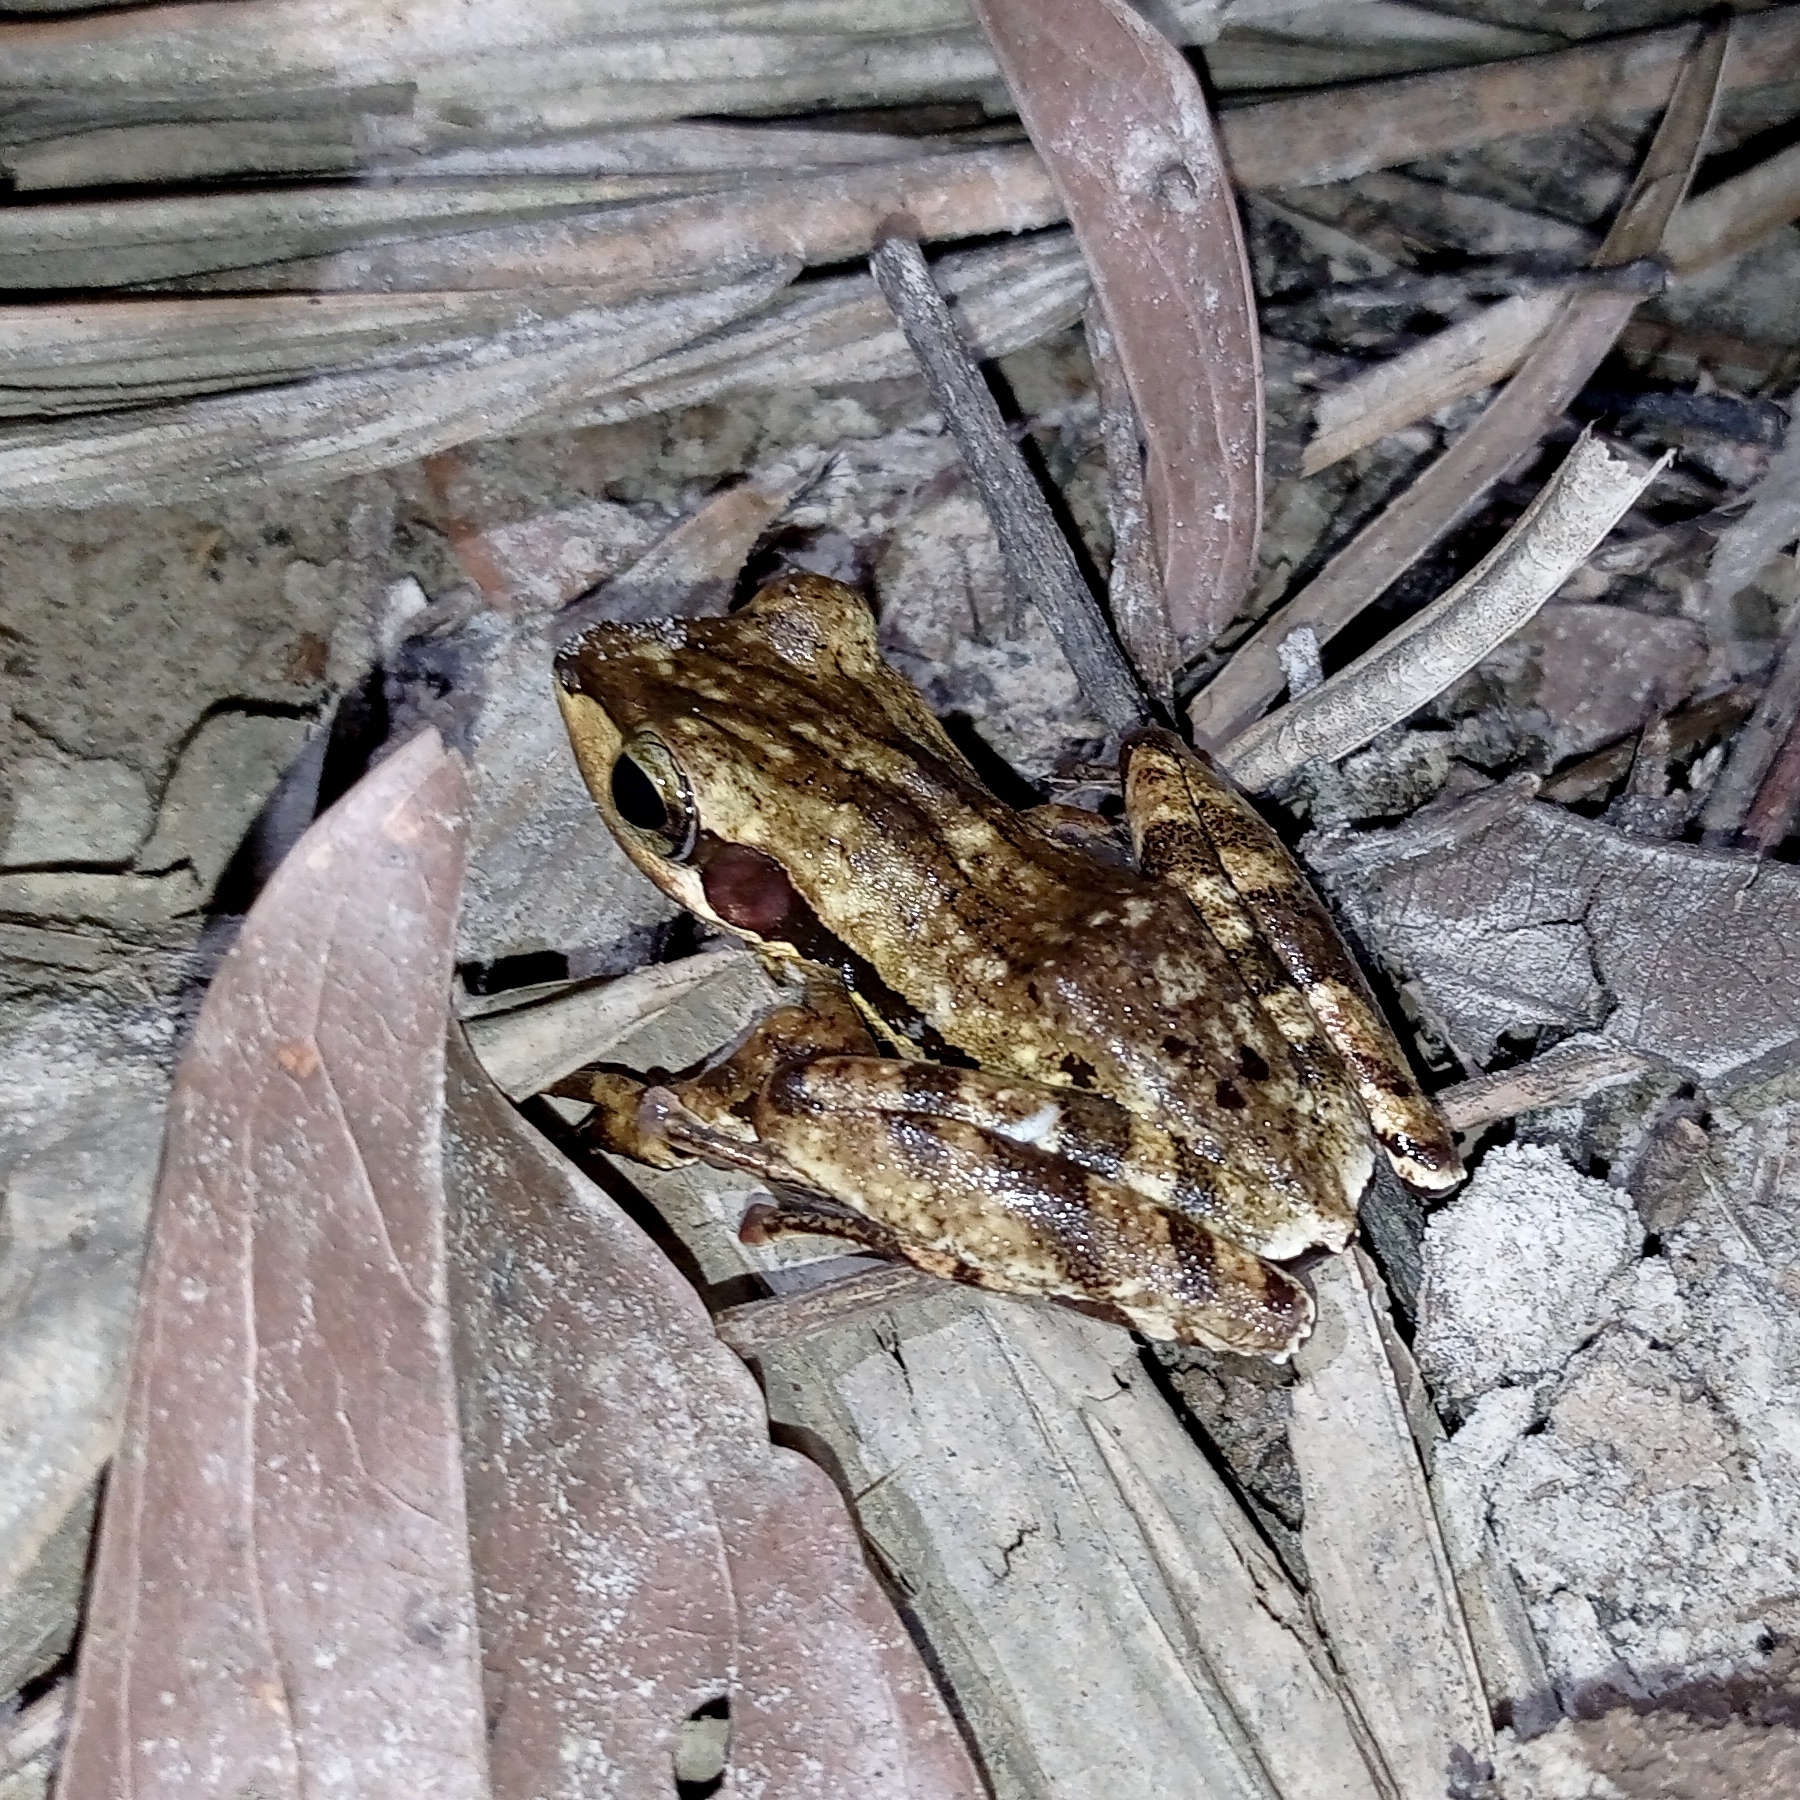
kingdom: Animalia
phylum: Chordata
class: Amphibia
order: Anura
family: Rhacophoridae
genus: Polypedates
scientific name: Polypedates macrotis
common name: Dark-eared tree frog
